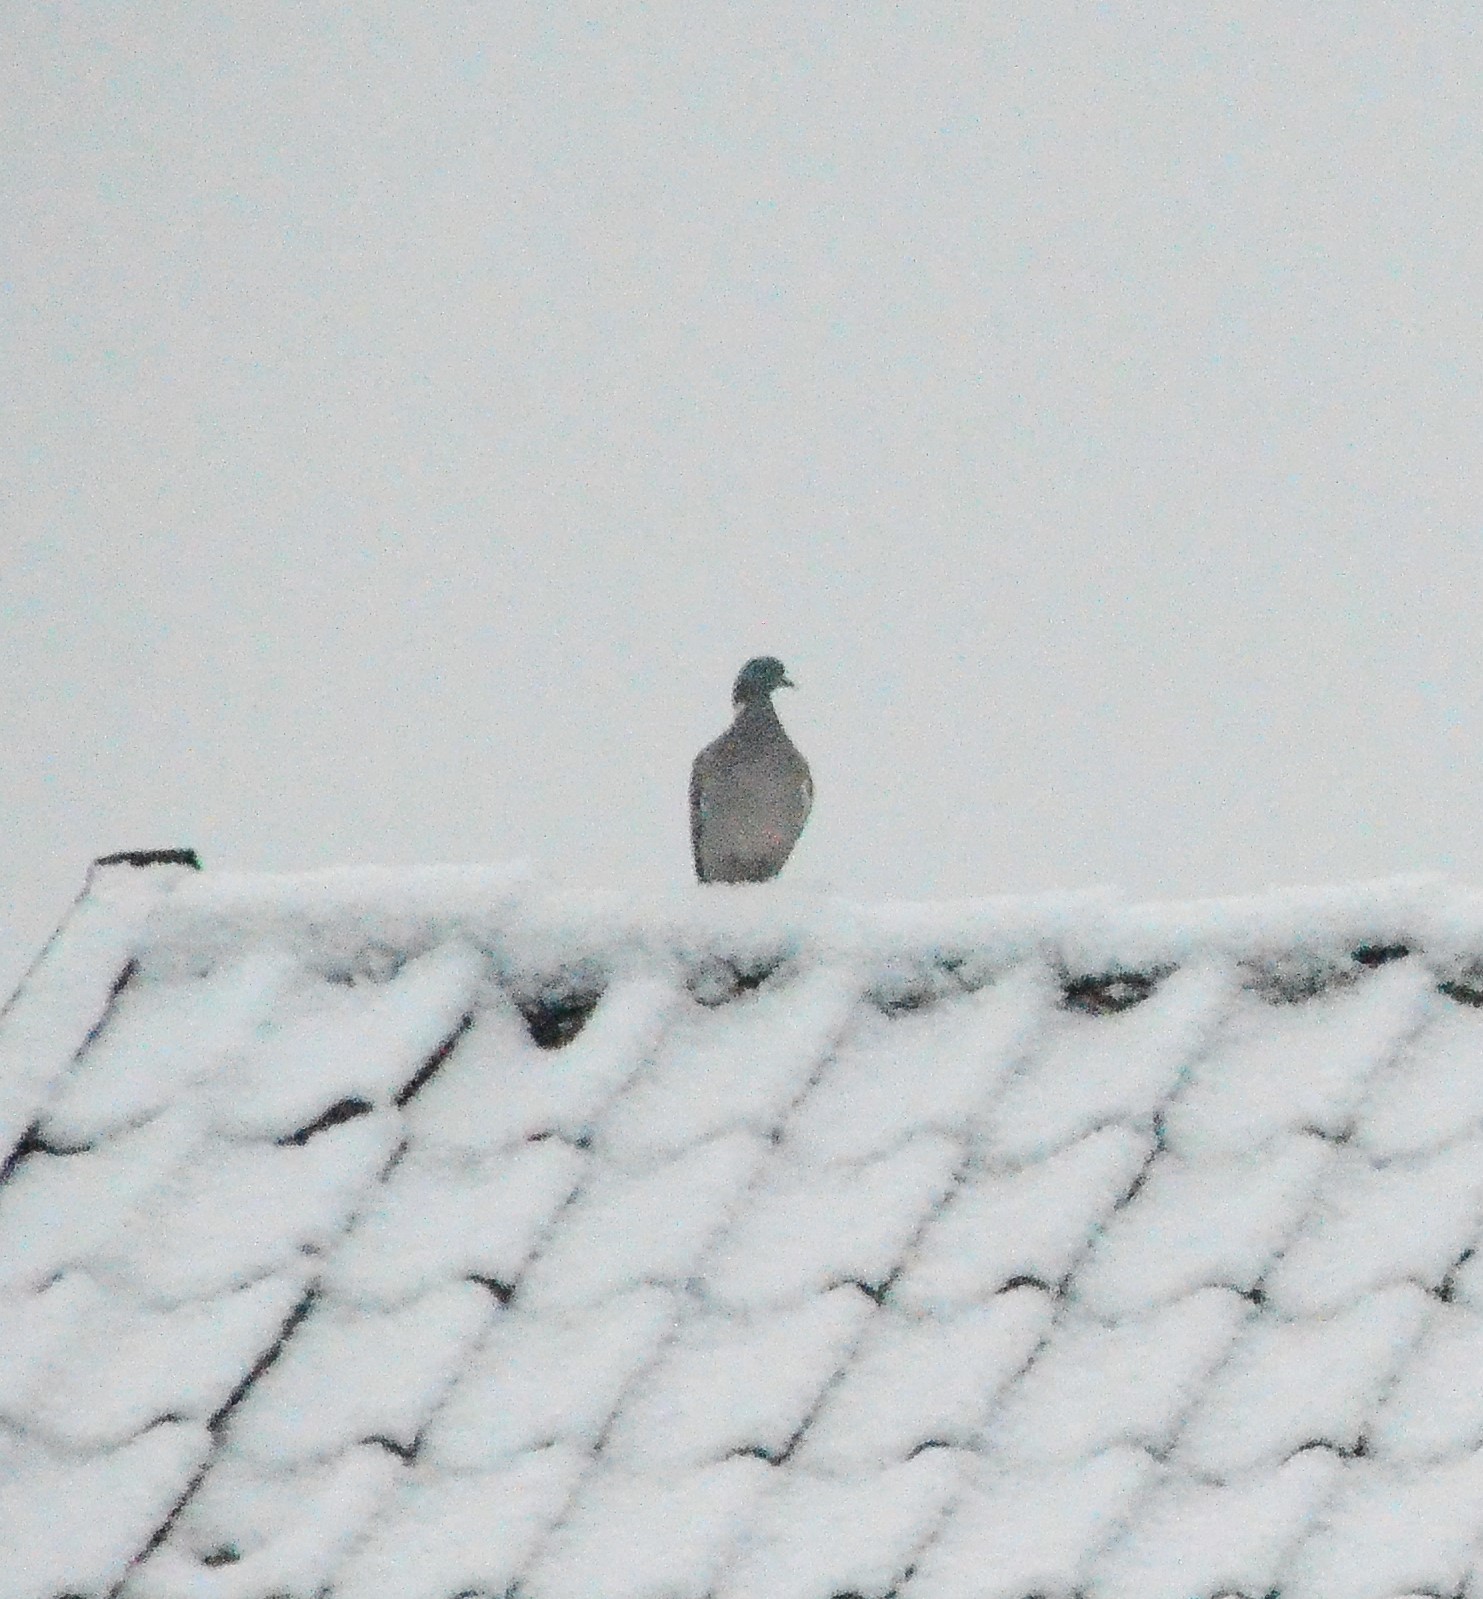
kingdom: Animalia
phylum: Chordata
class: Aves
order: Columbiformes
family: Columbidae
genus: Columba
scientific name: Columba palumbus
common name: Common wood pigeon
